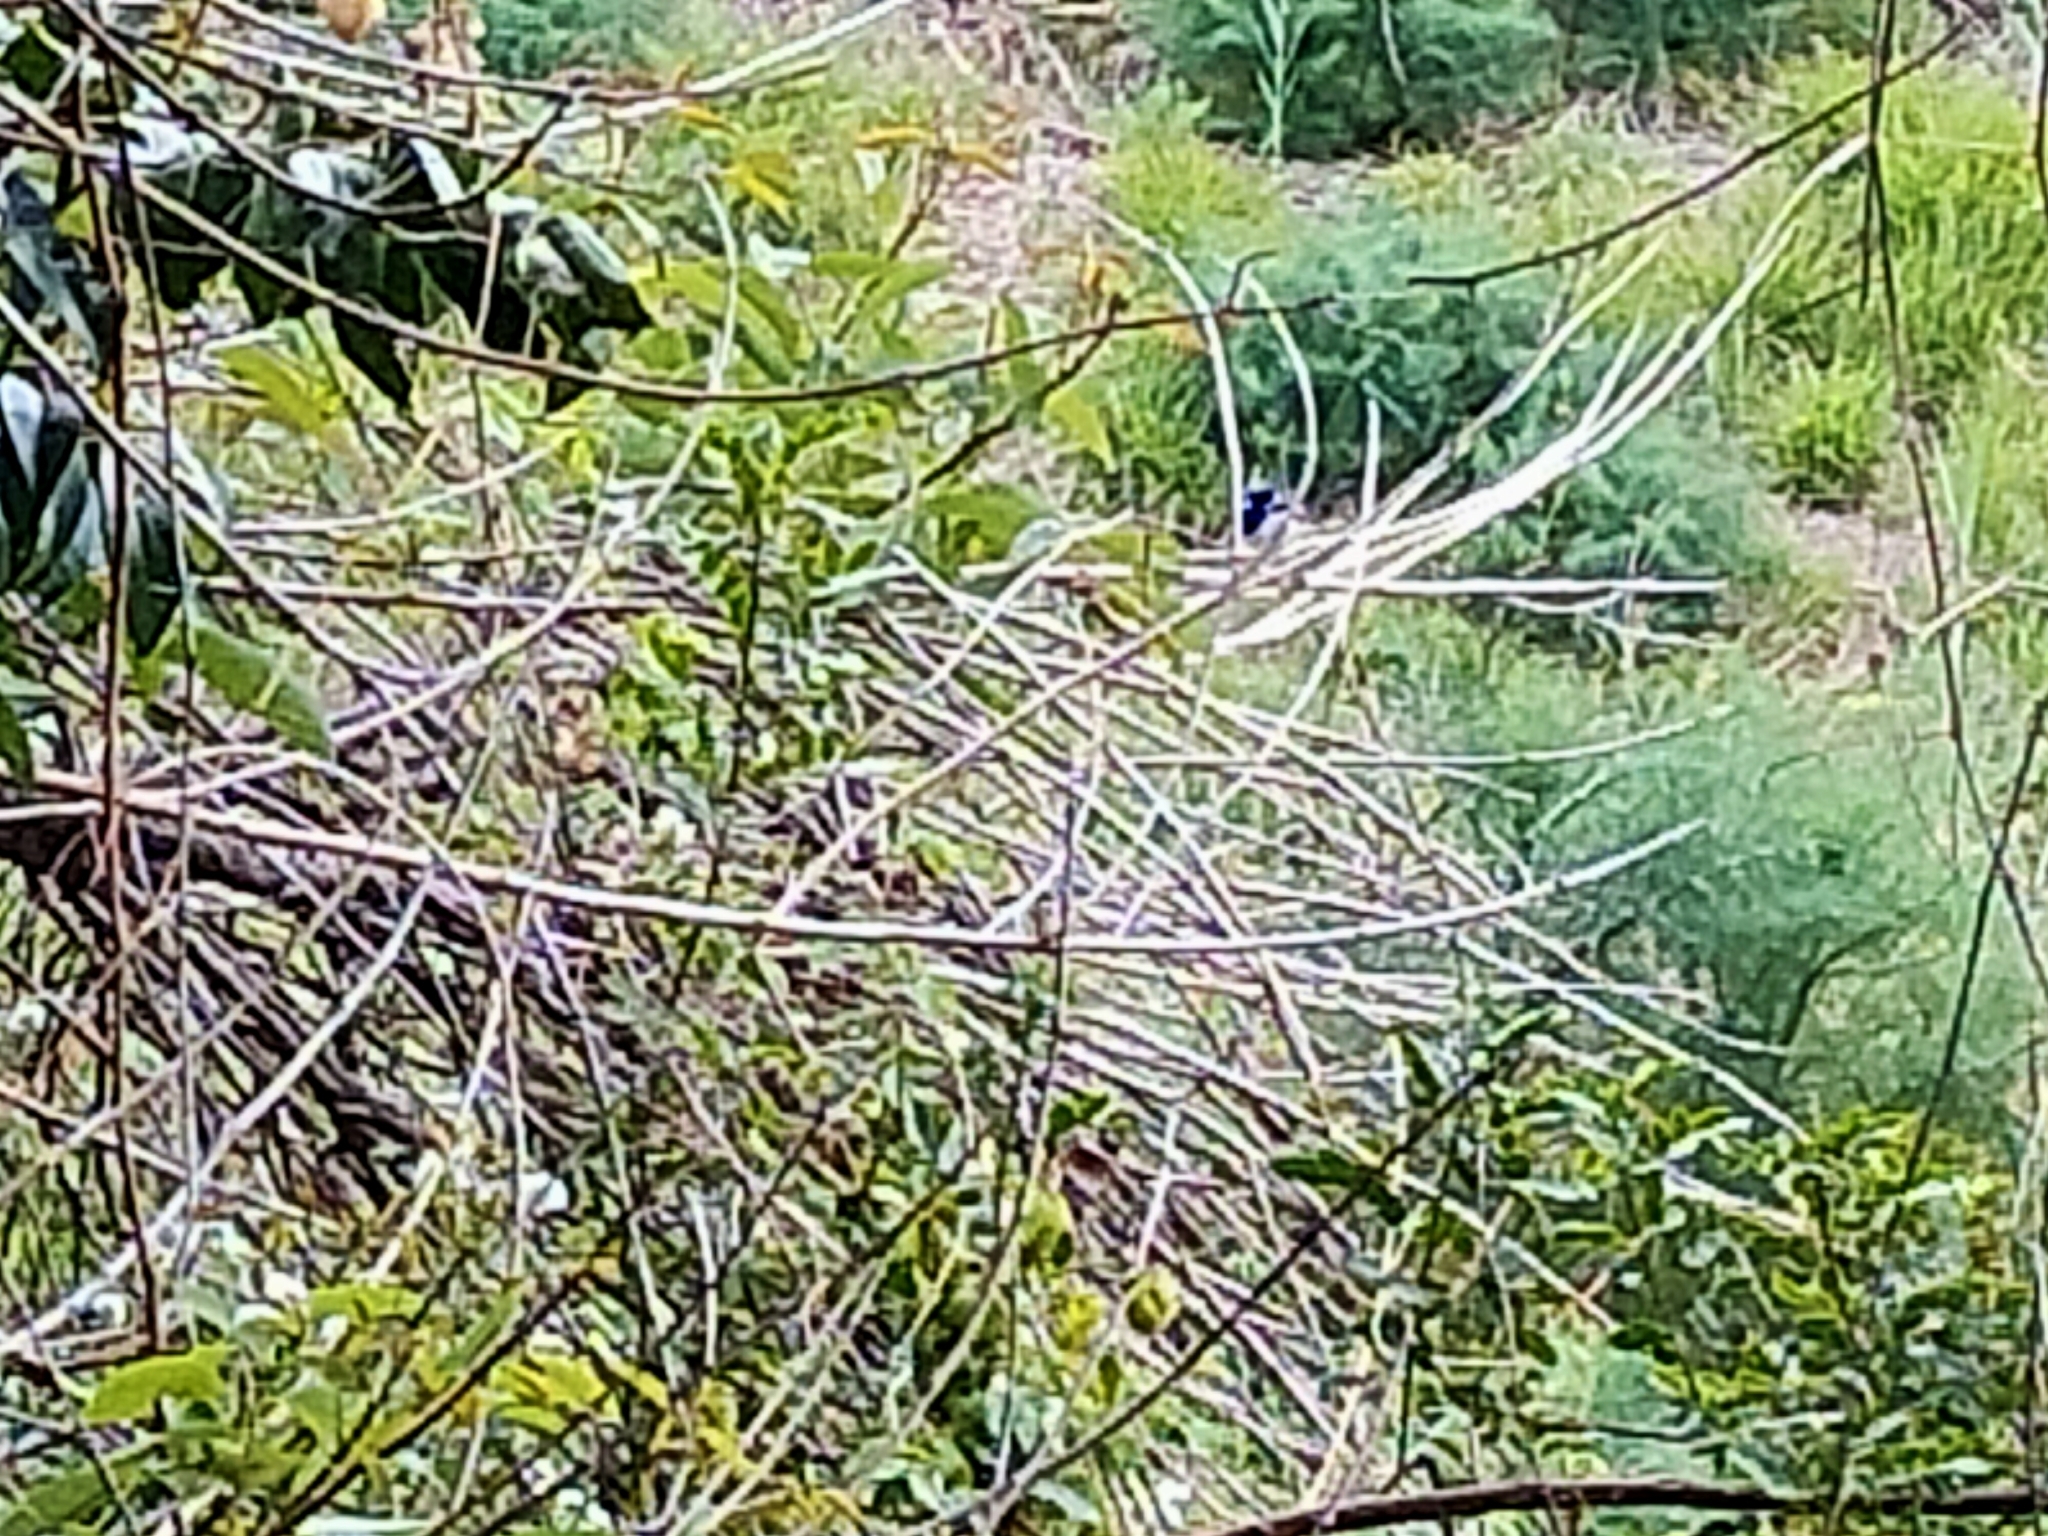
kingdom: Animalia
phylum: Chordata
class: Aves
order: Passeriformes
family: Maluridae
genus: Malurus
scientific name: Malurus cyaneus
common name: Superb fairywren
